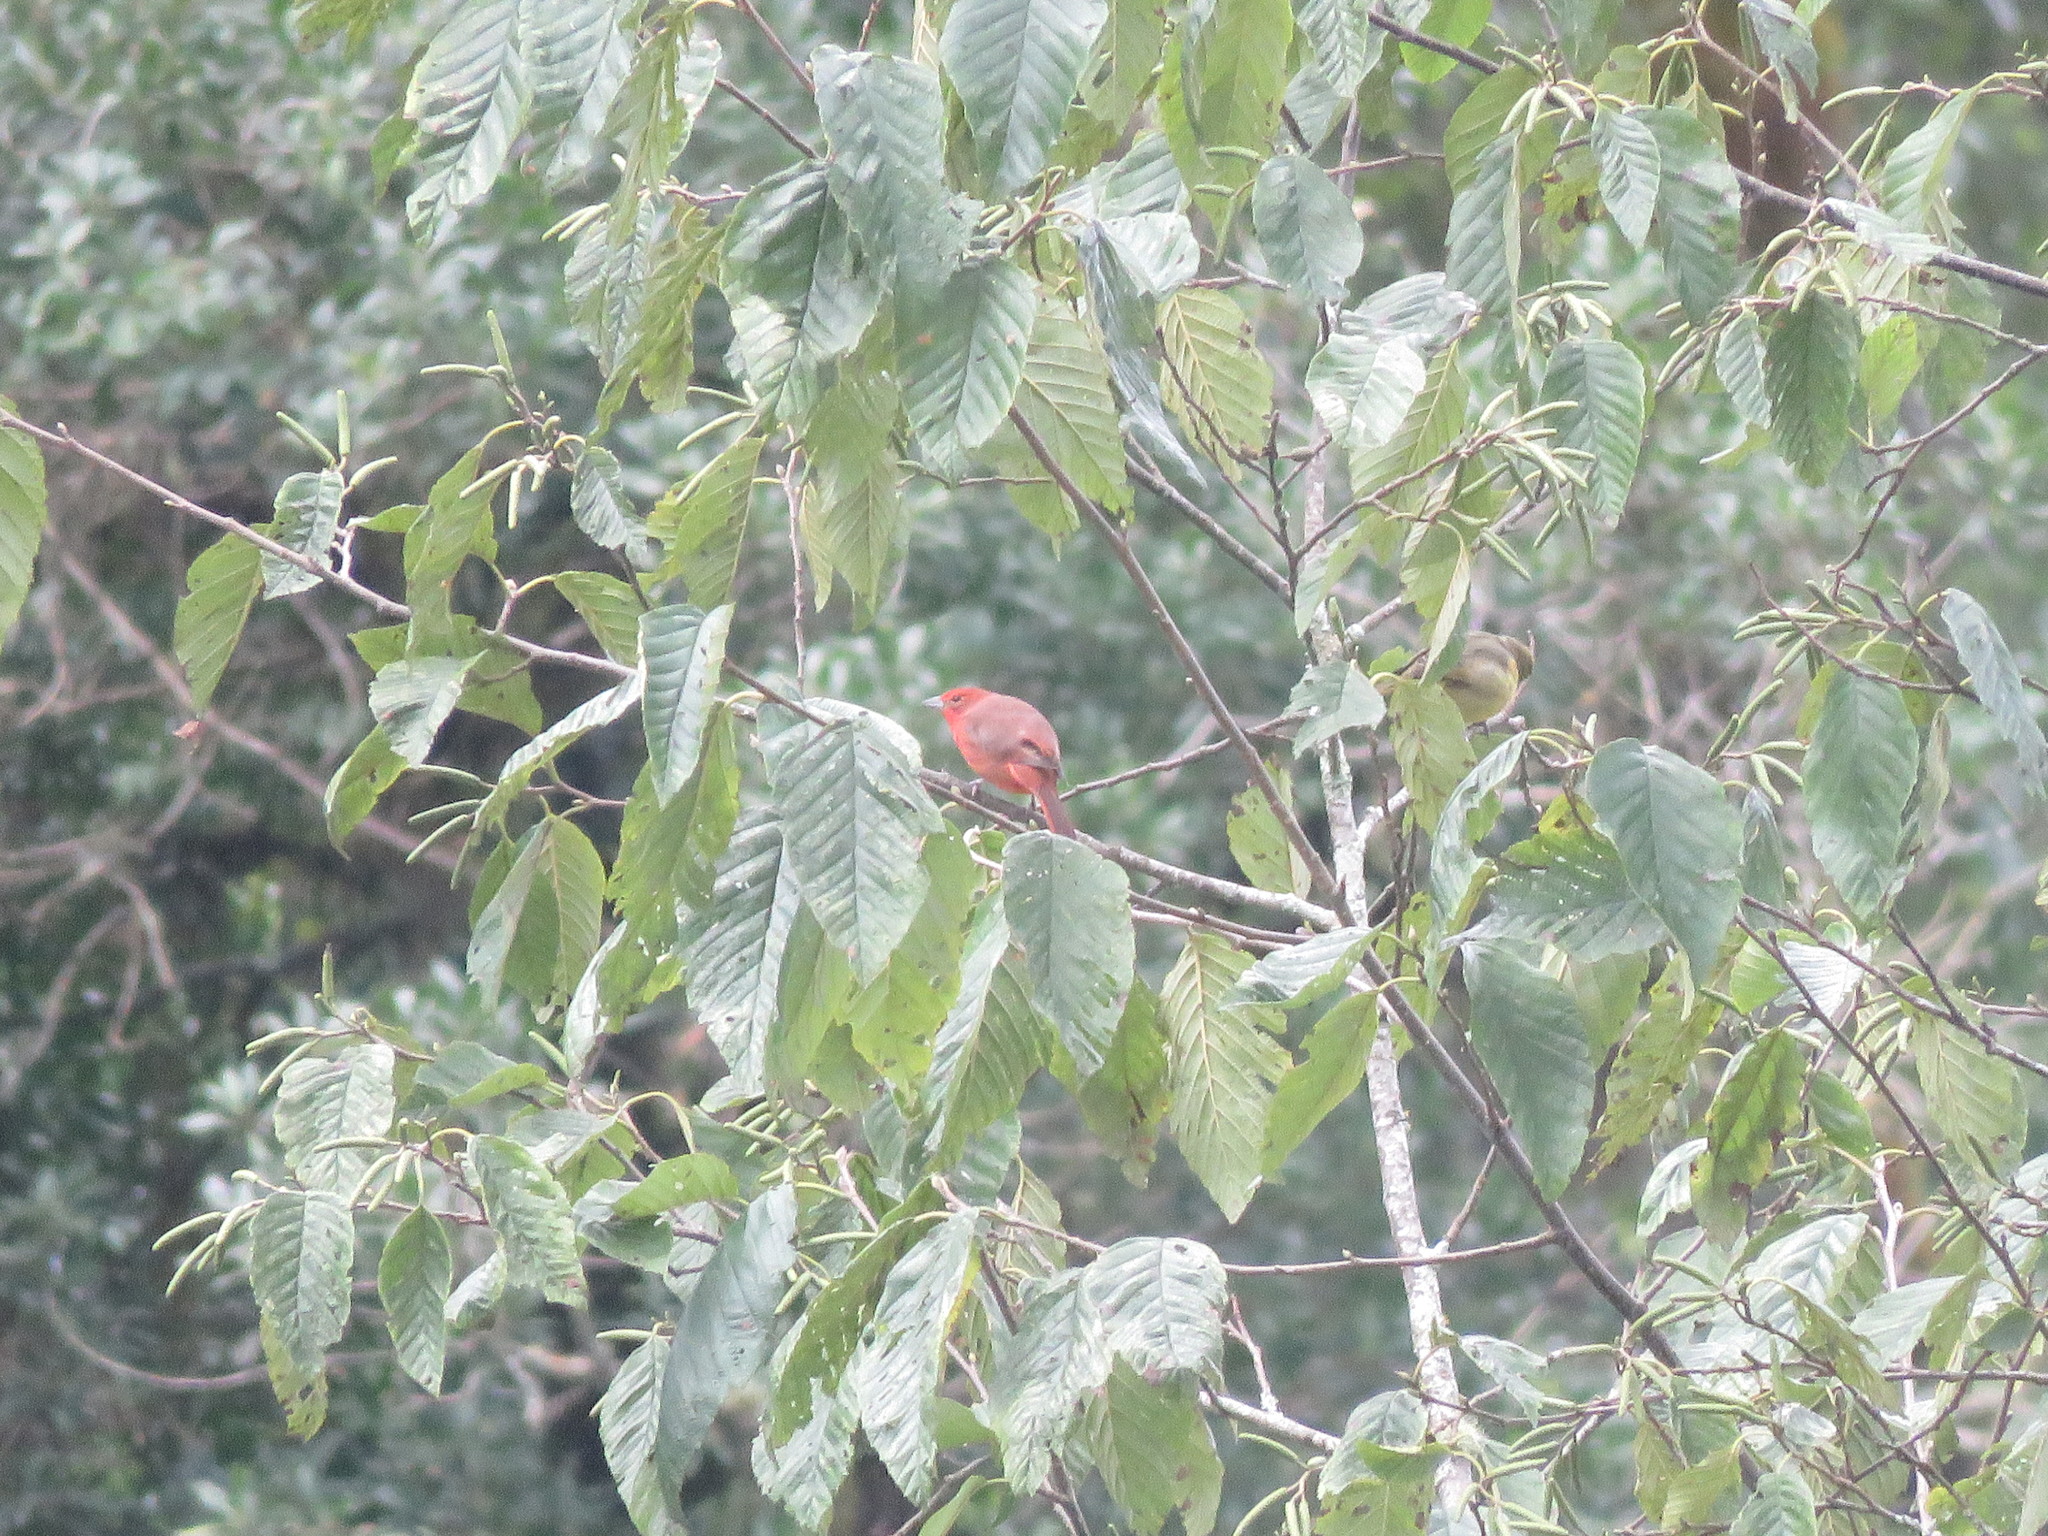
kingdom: Animalia
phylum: Chordata
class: Aves
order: Passeriformes
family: Cardinalidae
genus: Piranga
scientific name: Piranga flava
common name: Red tanager
